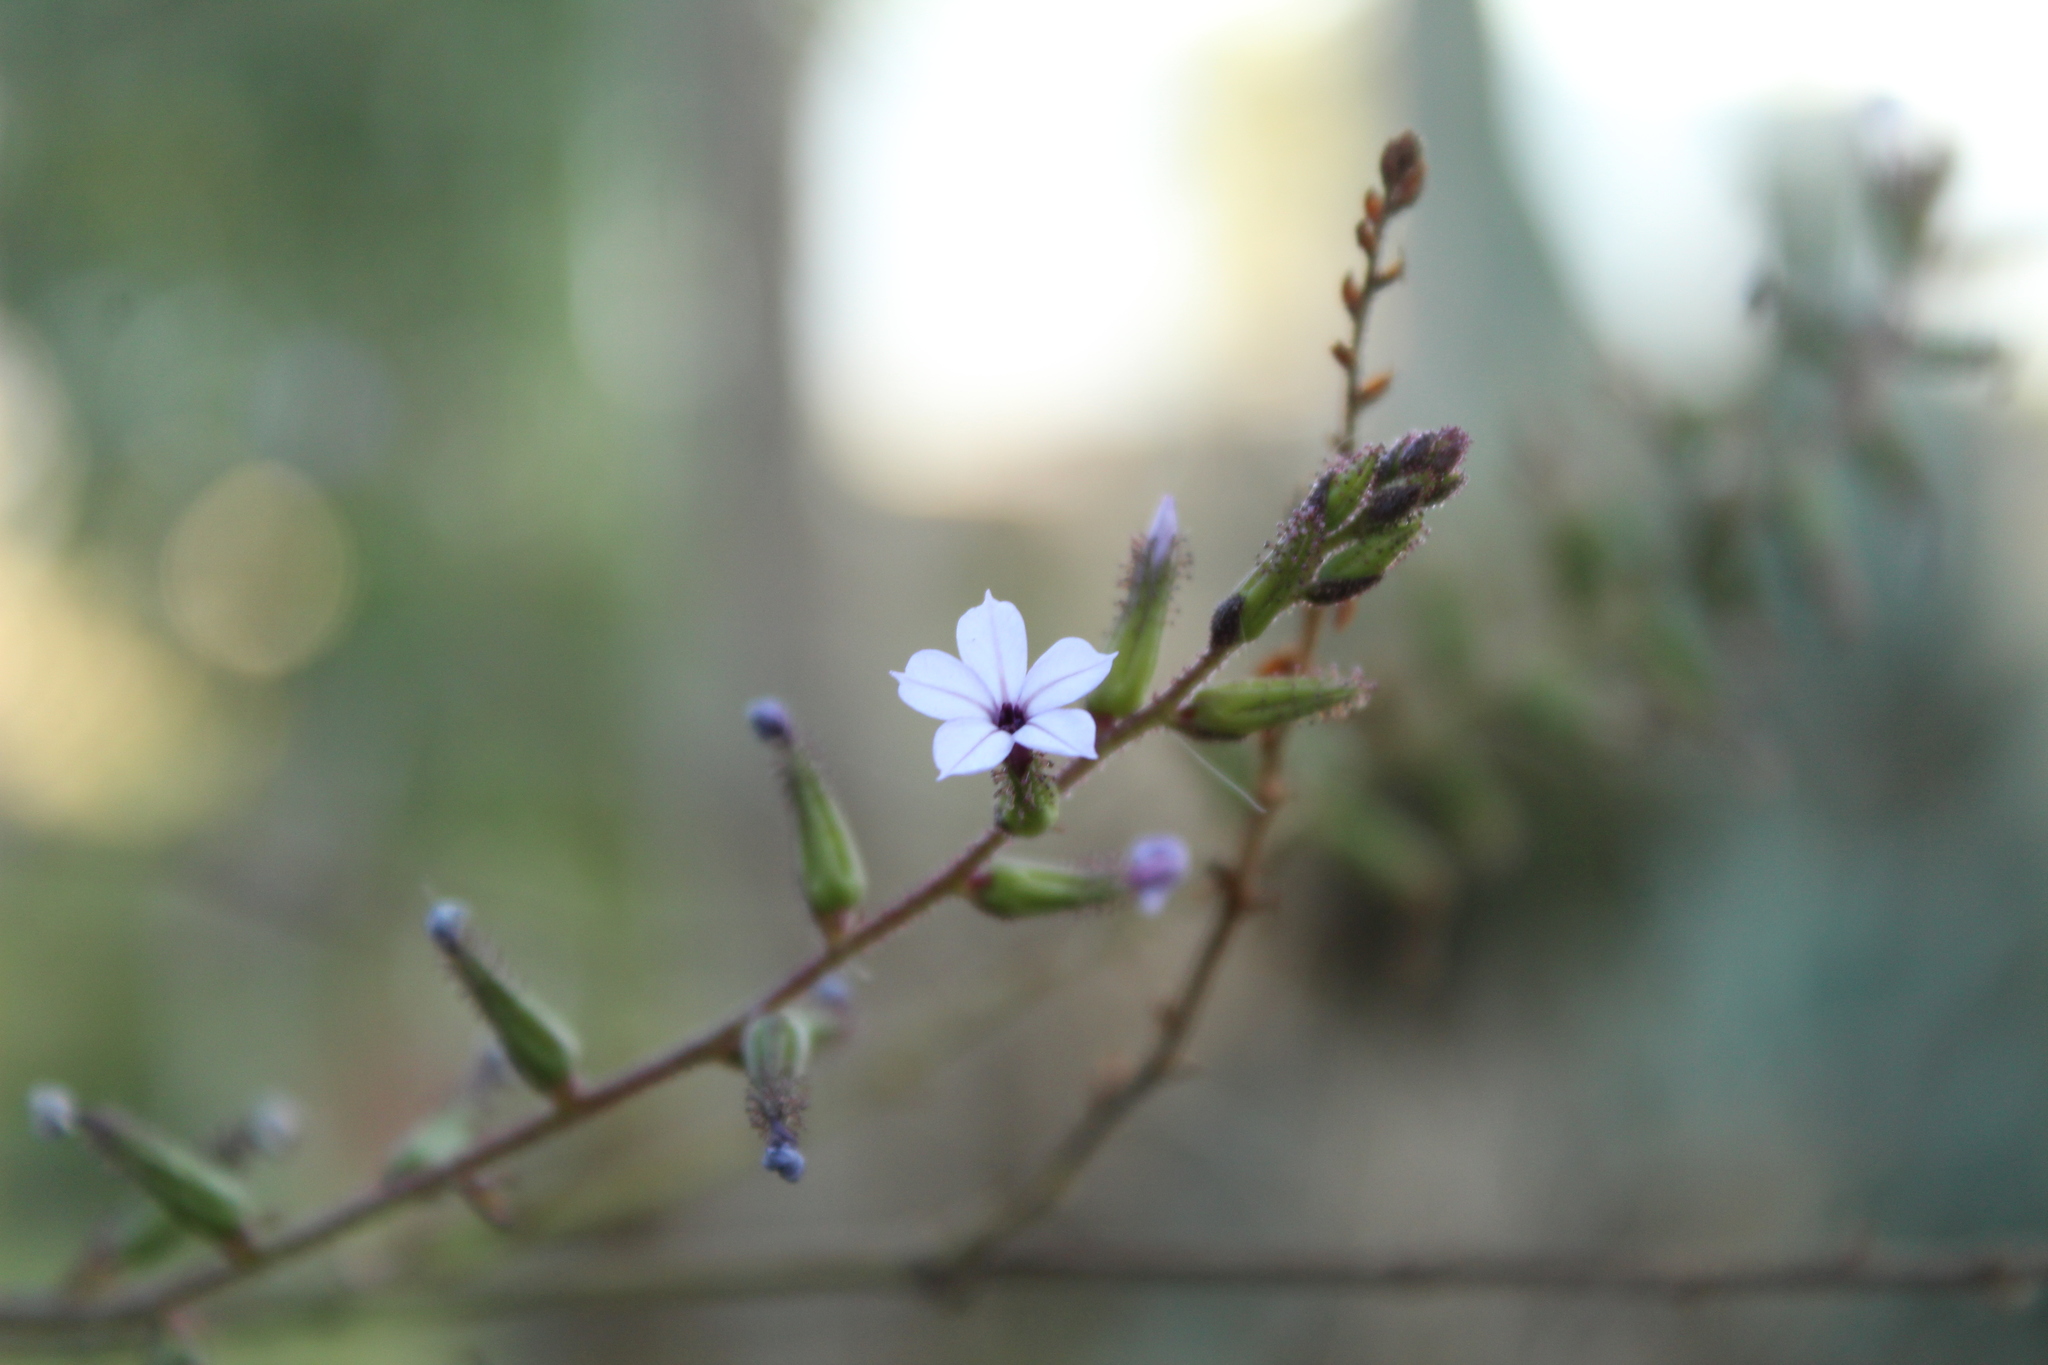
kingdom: Plantae
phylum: Tracheophyta
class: Magnoliopsida
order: Caryophyllales
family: Plumbaginaceae
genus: Plumbago
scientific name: Plumbago caerulea
